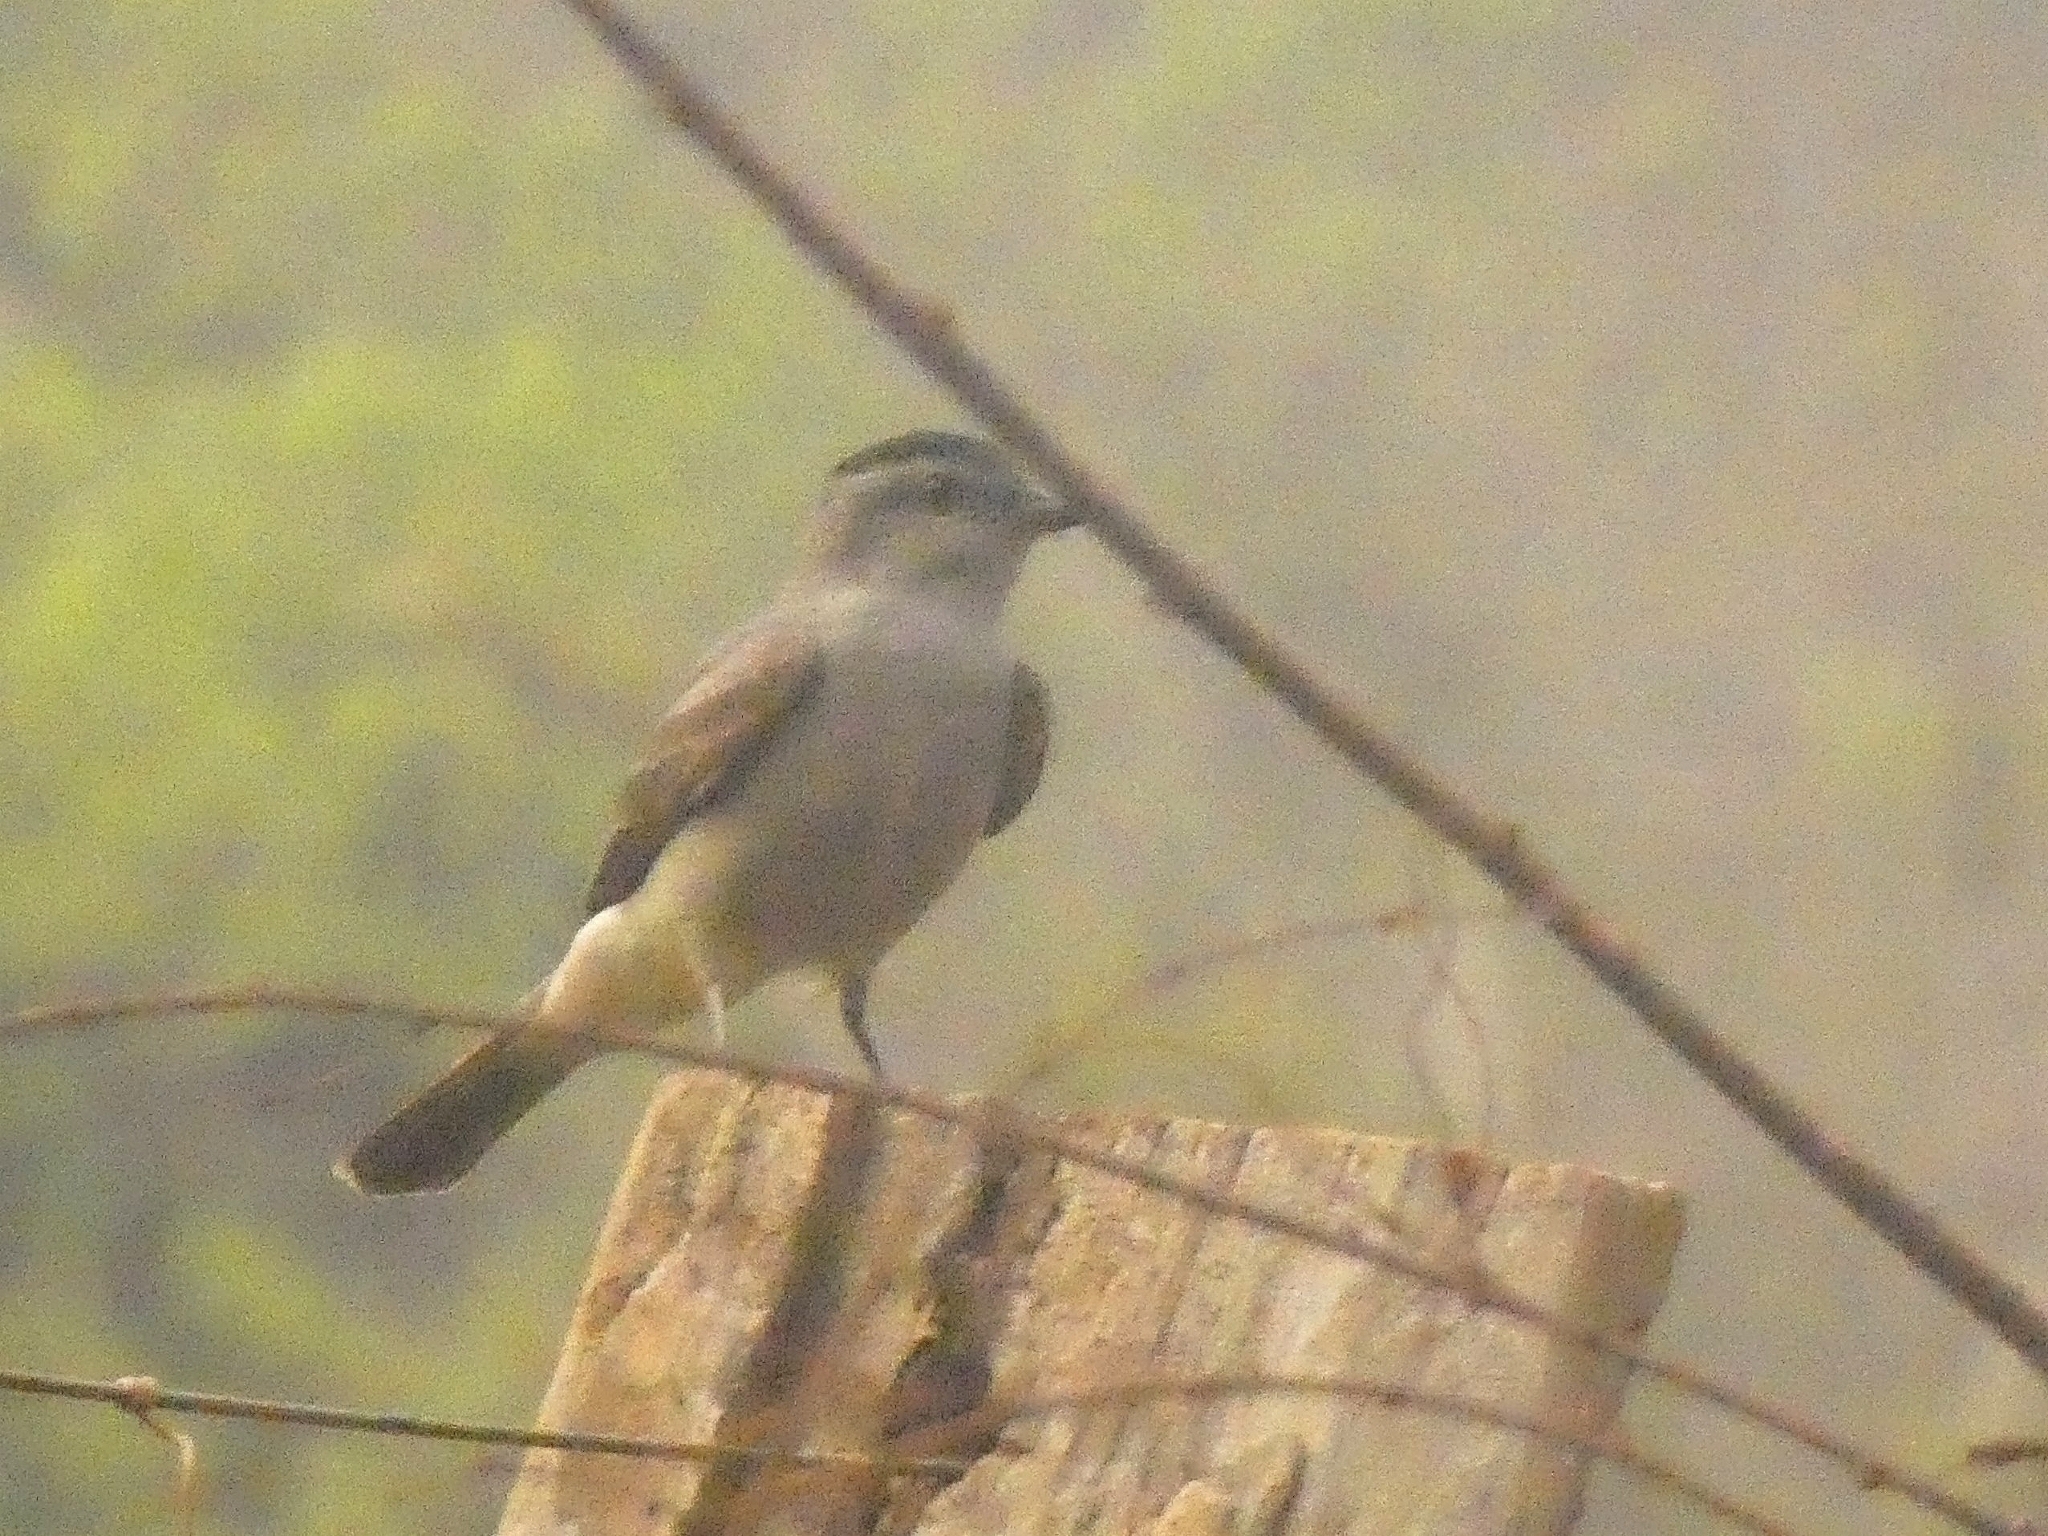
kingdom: Animalia
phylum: Chordata
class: Aves
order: Passeriformes
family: Tyrannidae
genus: Empidonomus
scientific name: Empidonomus aurantioatrocristatus
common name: Crowned slaty flycatcher
